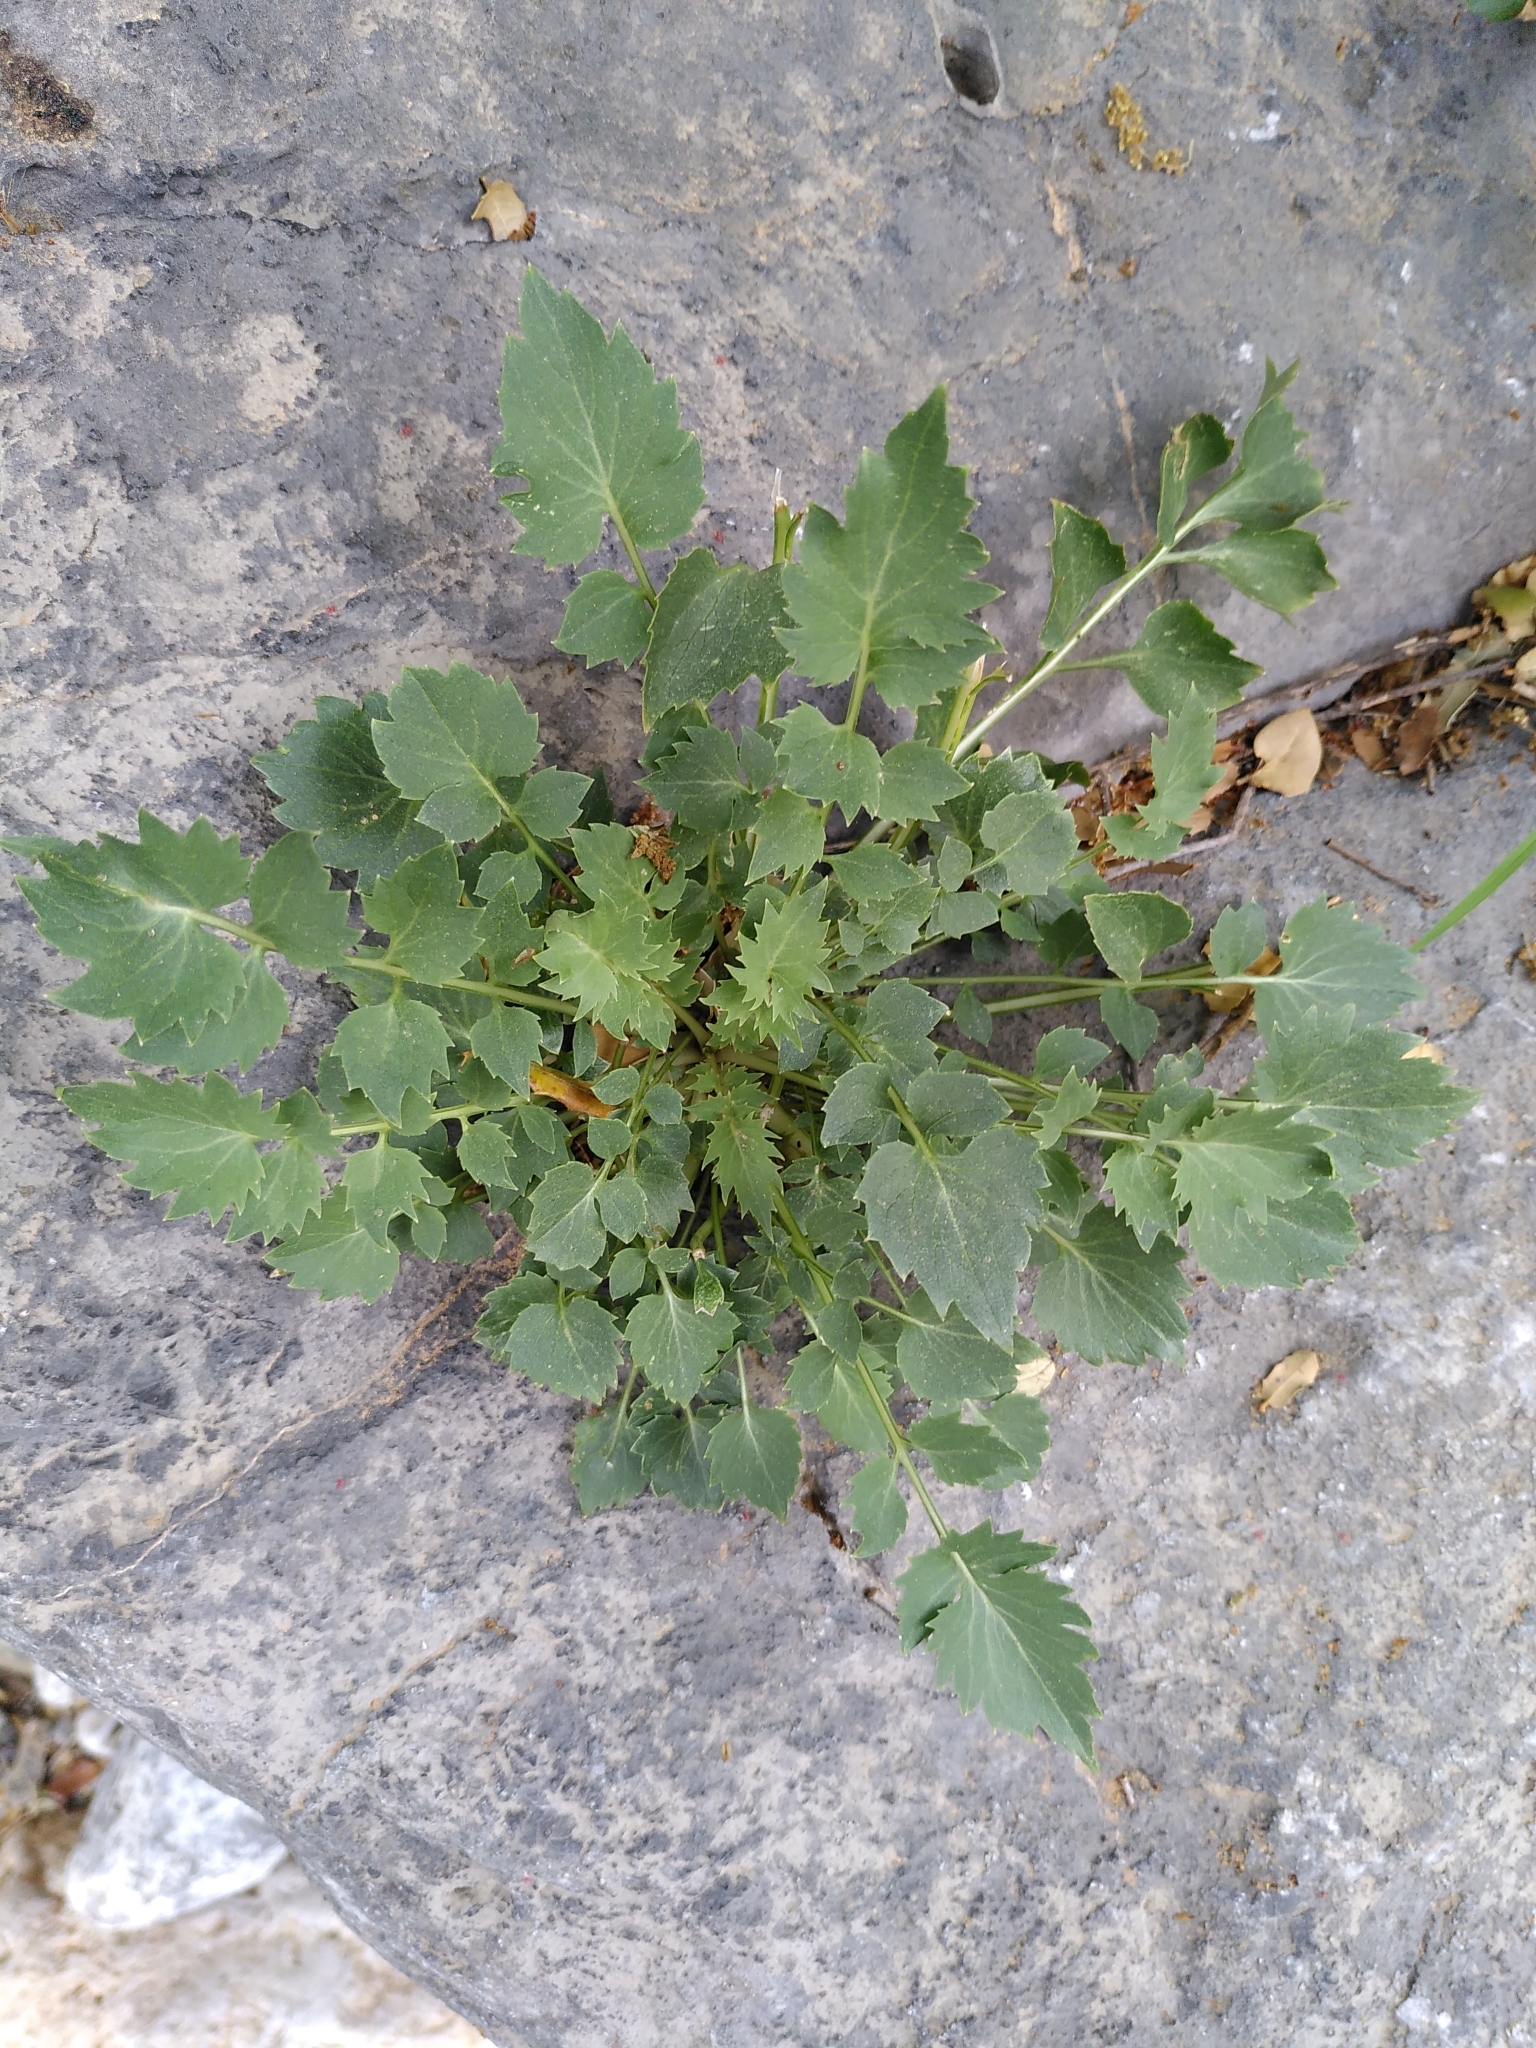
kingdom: Plantae
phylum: Tracheophyta
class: Magnoliopsida
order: Asterales
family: Campanulaceae
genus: Petromarula
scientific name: Petromarula pinnata
